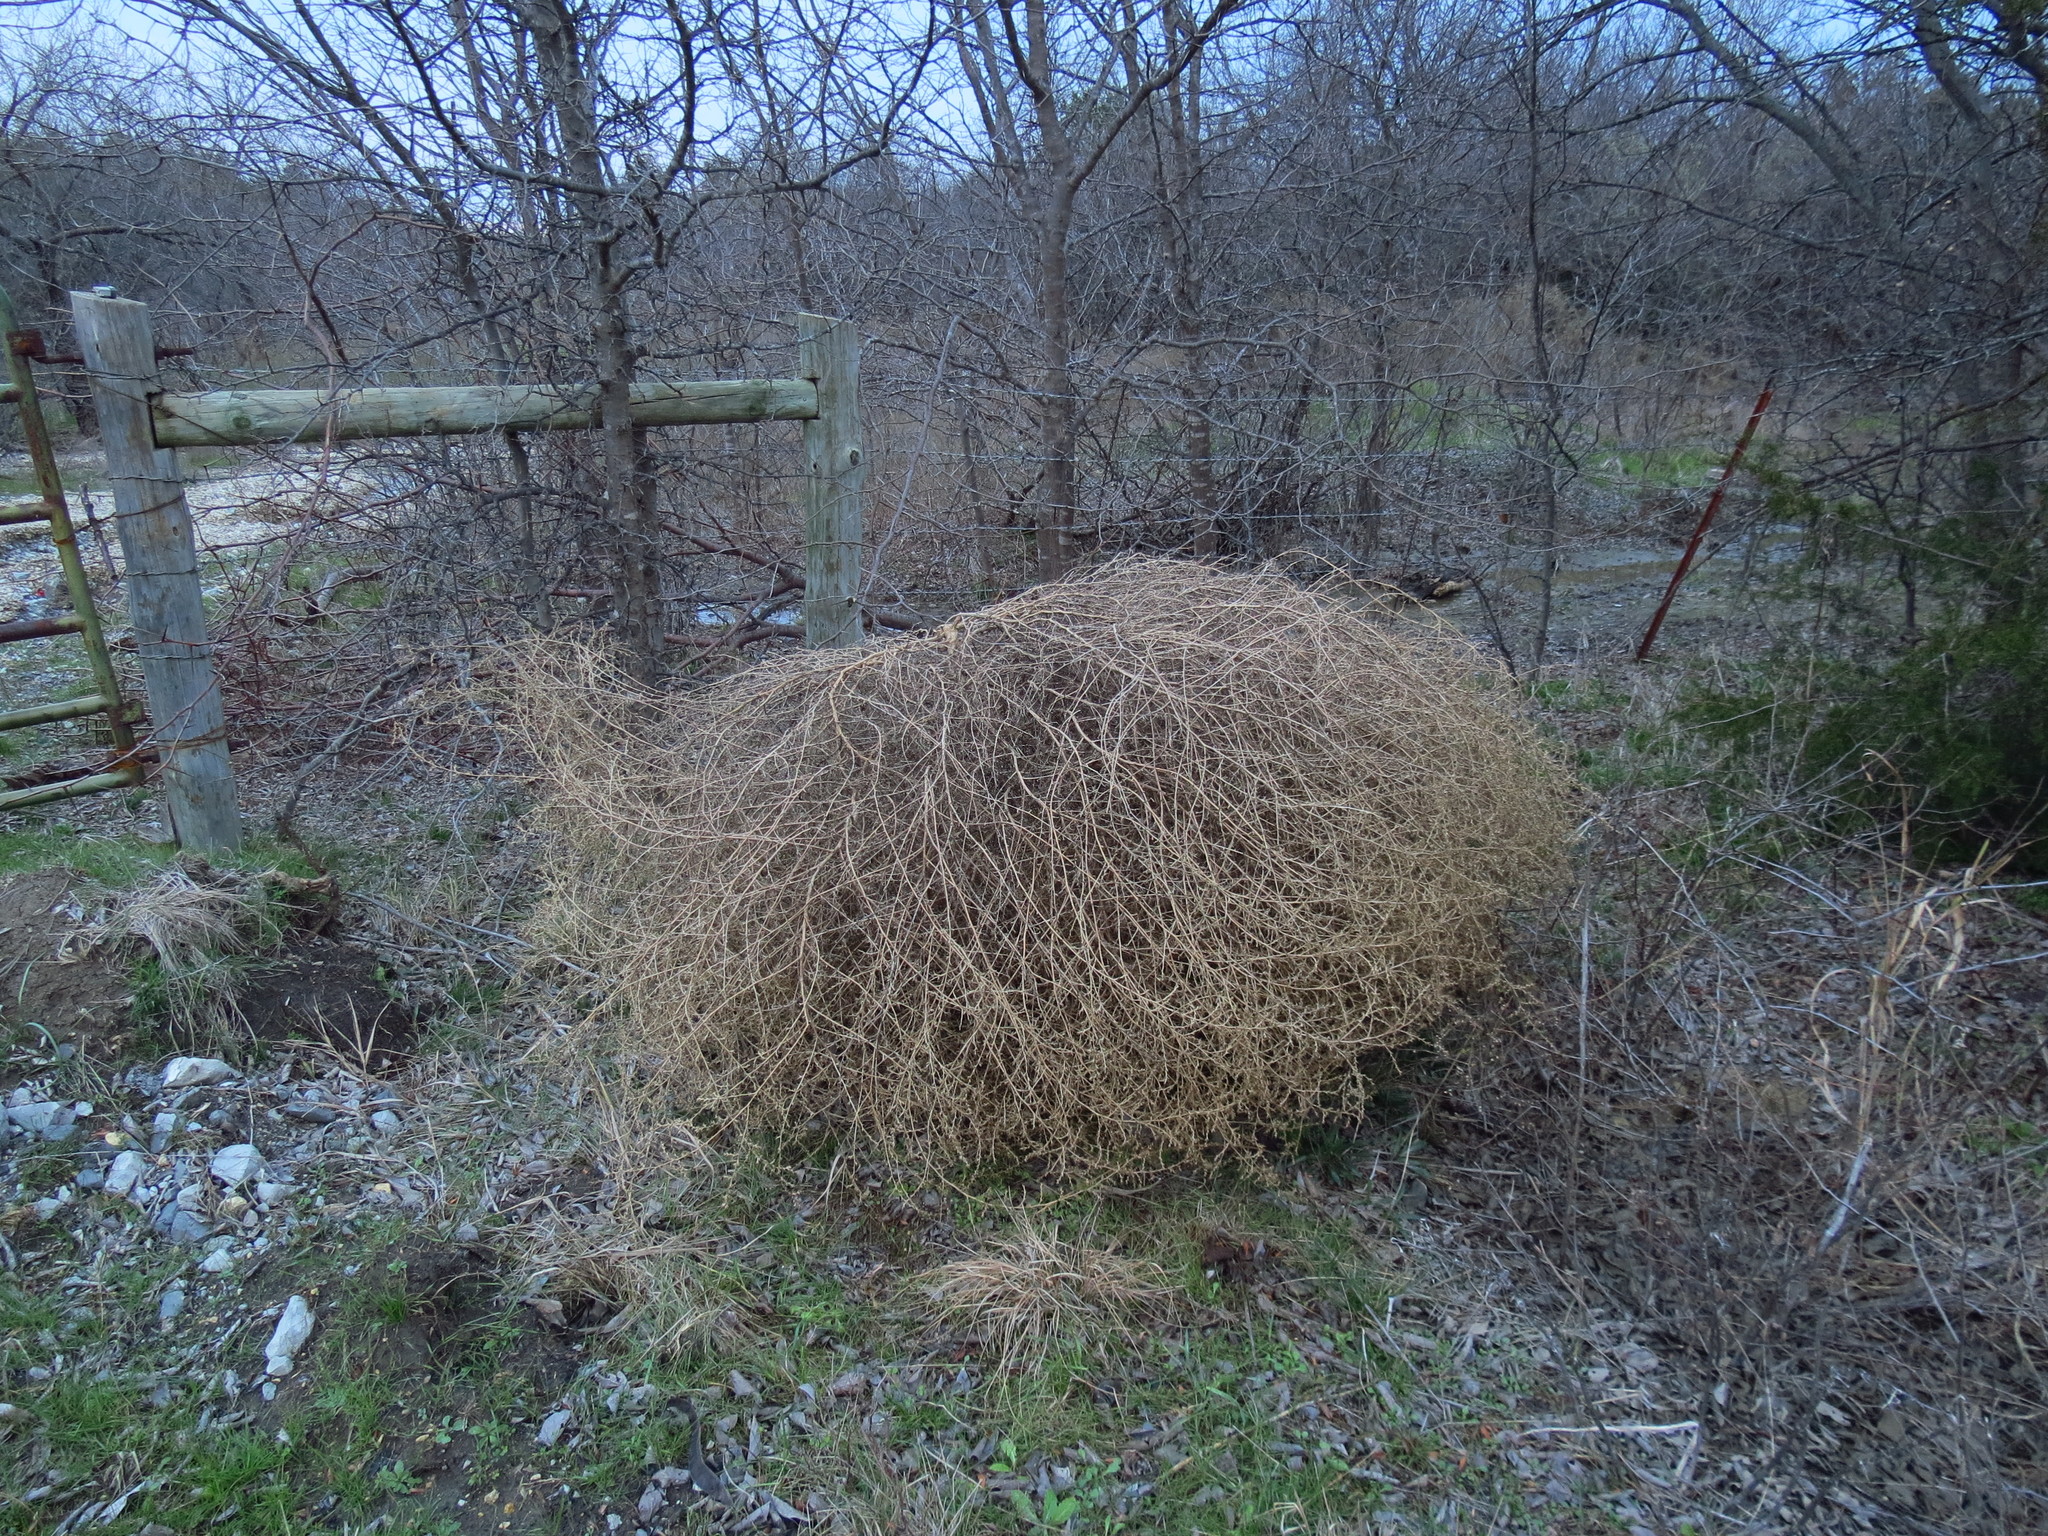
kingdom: Plantae
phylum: Tracheophyta
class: Magnoliopsida
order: Caryophyllales
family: Amaranthaceae
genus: Salsola
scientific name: Salsola tragus
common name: Prickly russian thistle
